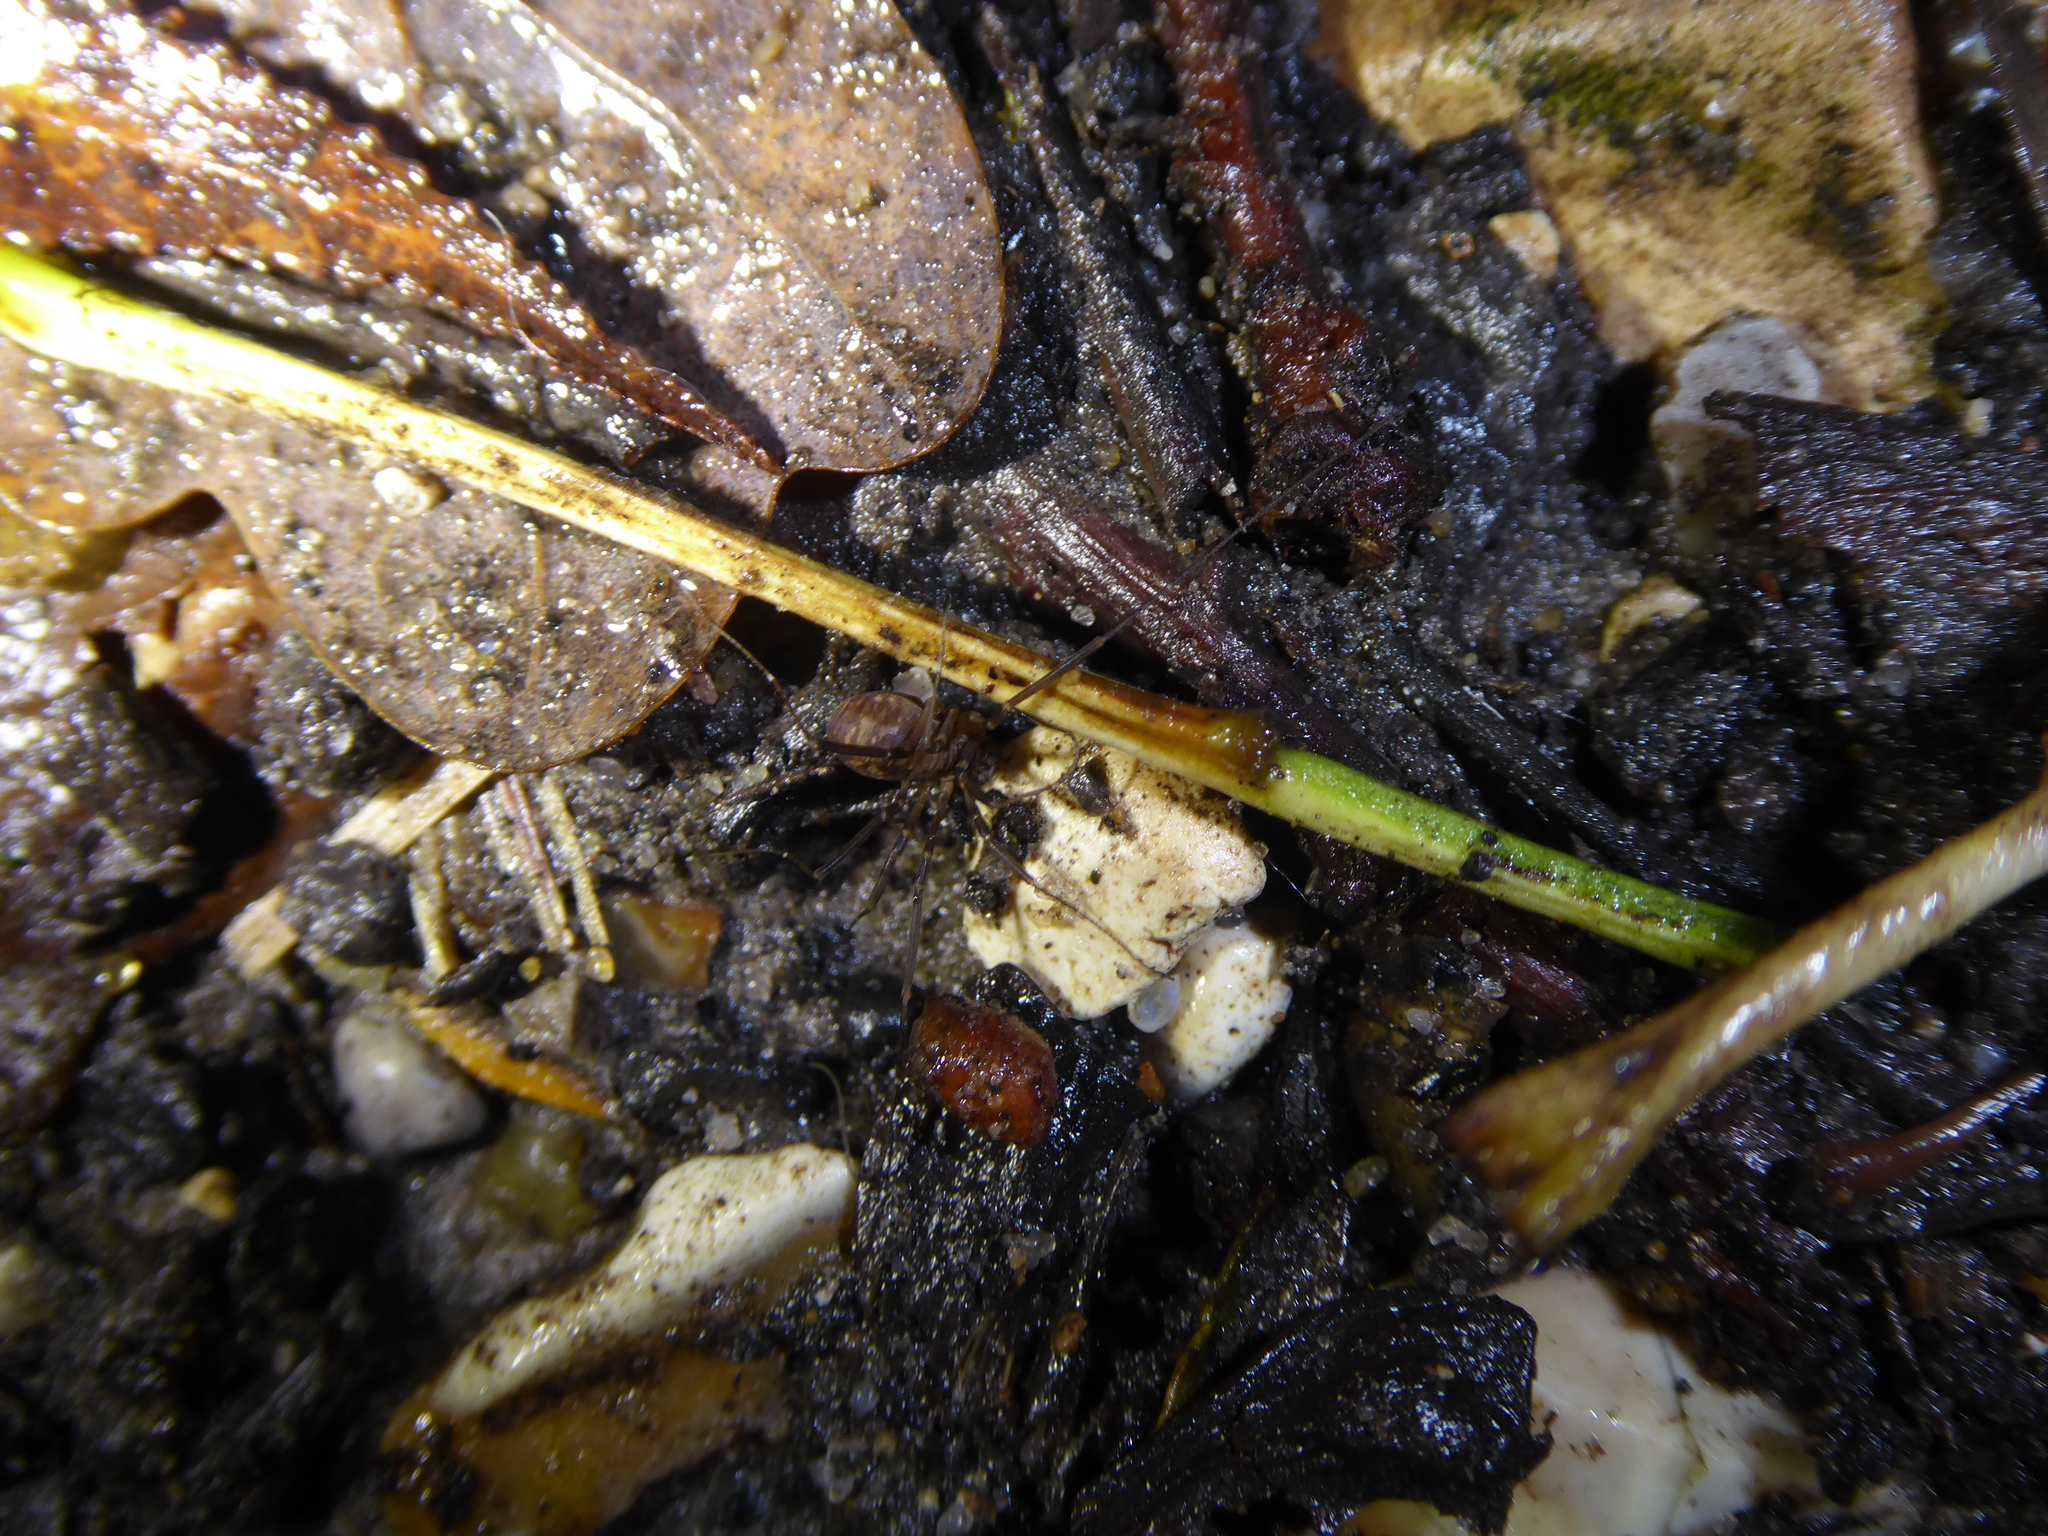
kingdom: Animalia
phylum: Arthropoda
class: Arachnida
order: Opiliones
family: Phalangiidae
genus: Dicranopalpus
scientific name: Dicranopalpus larvatus
